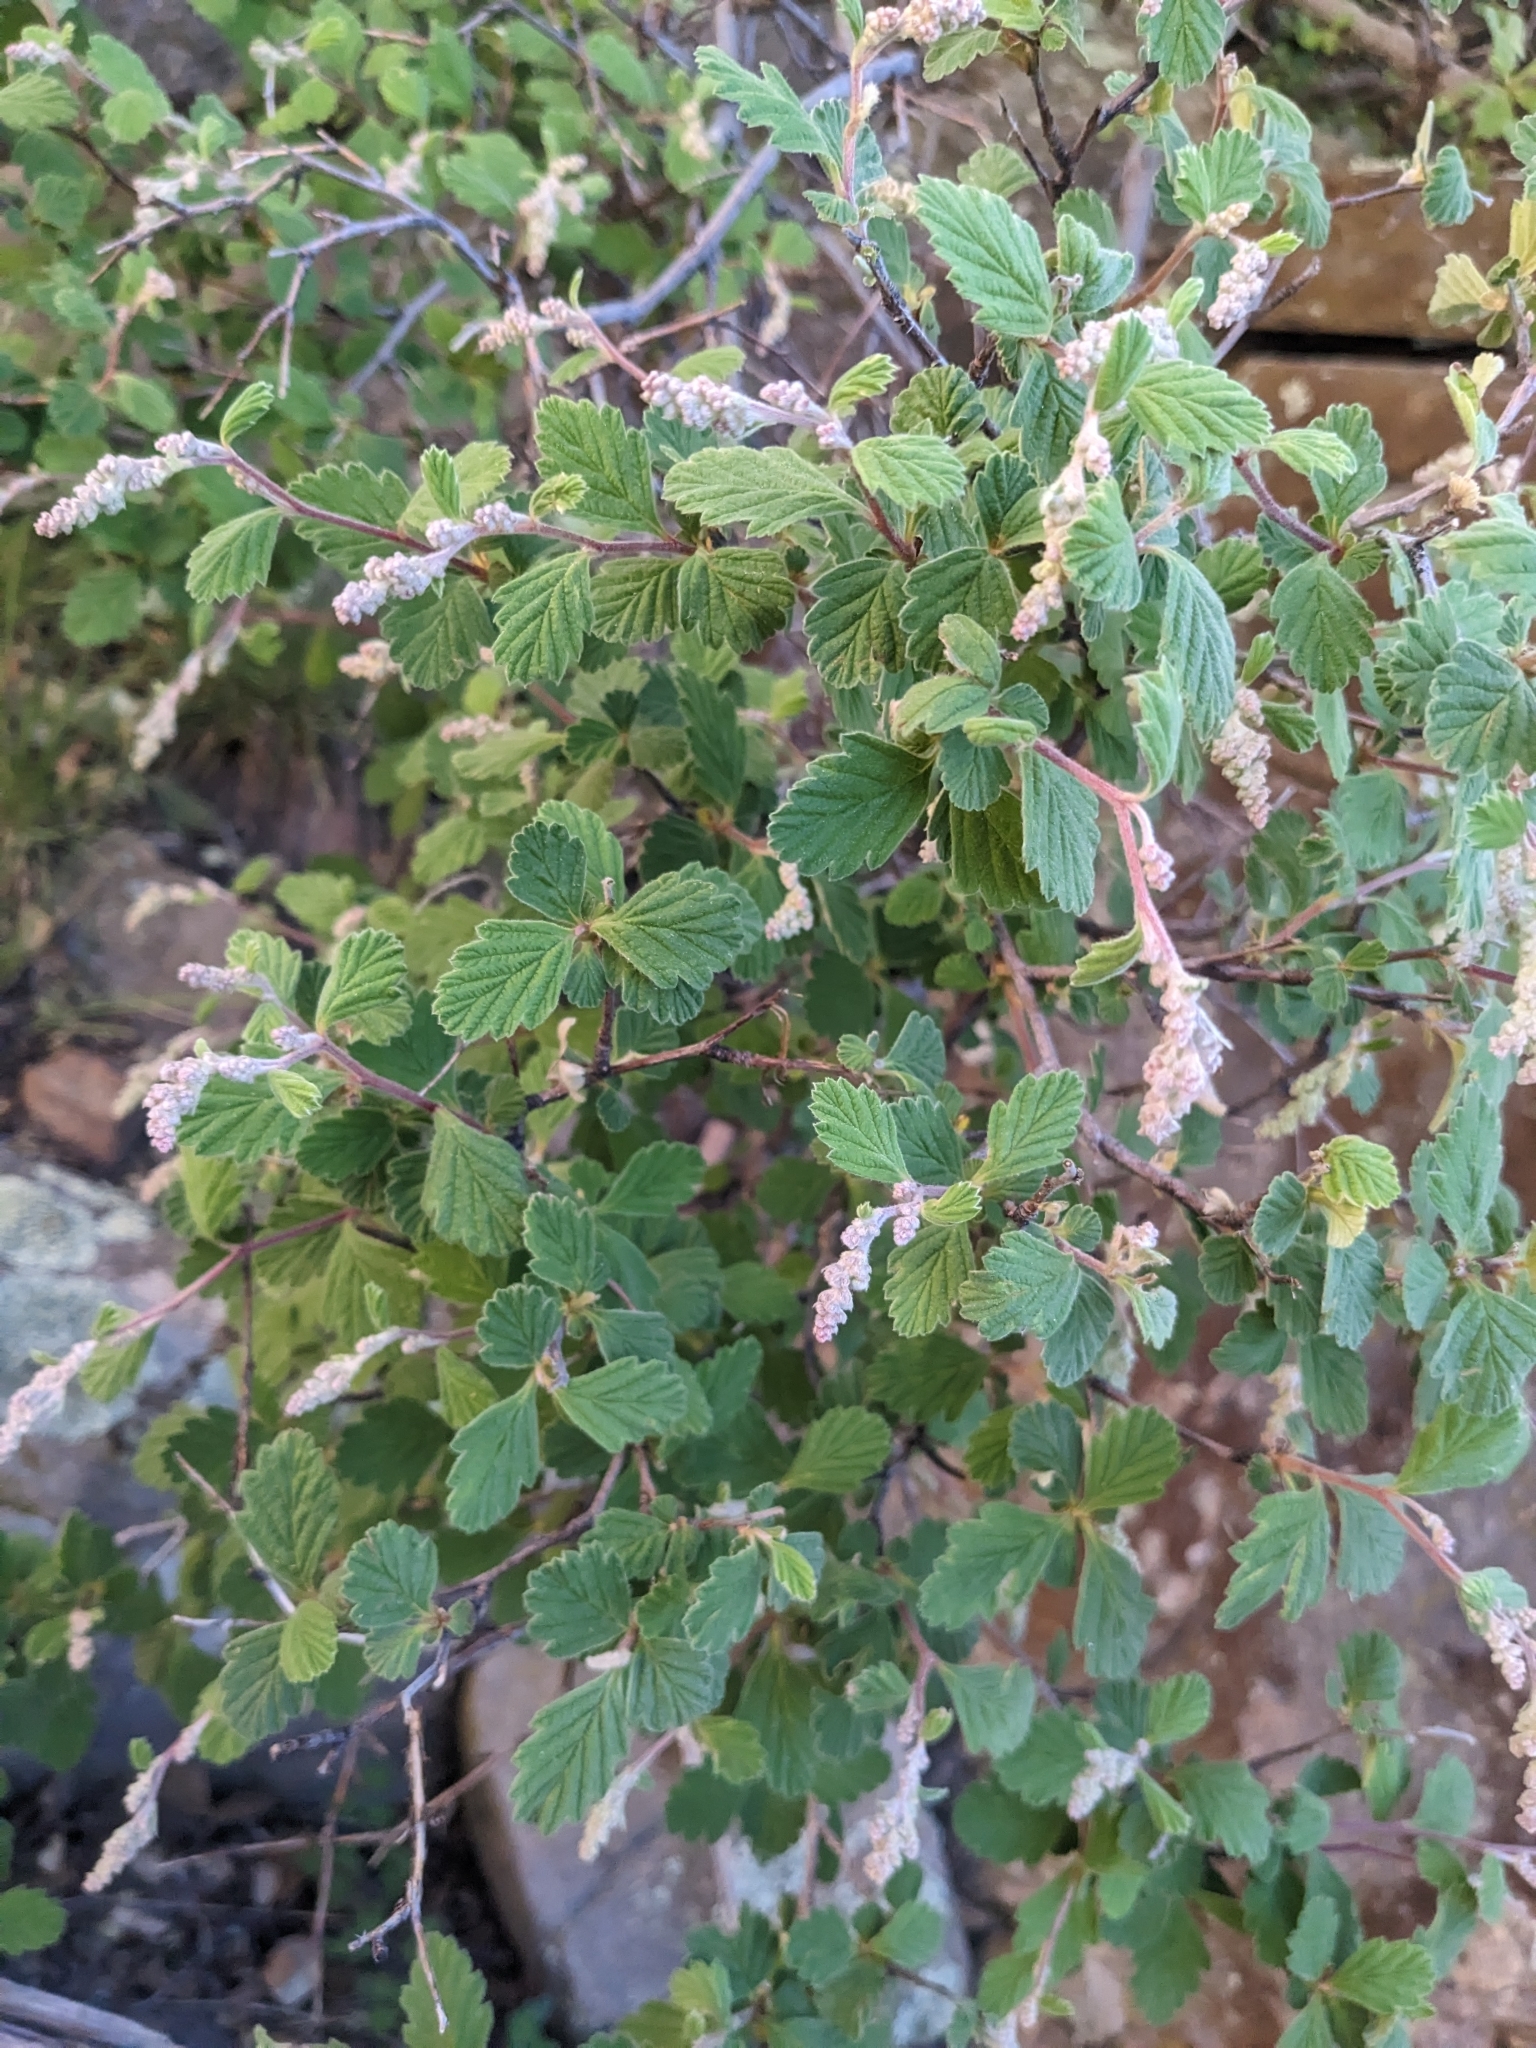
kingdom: Plantae
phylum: Tracheophyta
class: Magnoliopsida
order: Rosales
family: Rosaceae
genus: Holodiscus
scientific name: Holodiscus discolor
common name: Oceanspray
